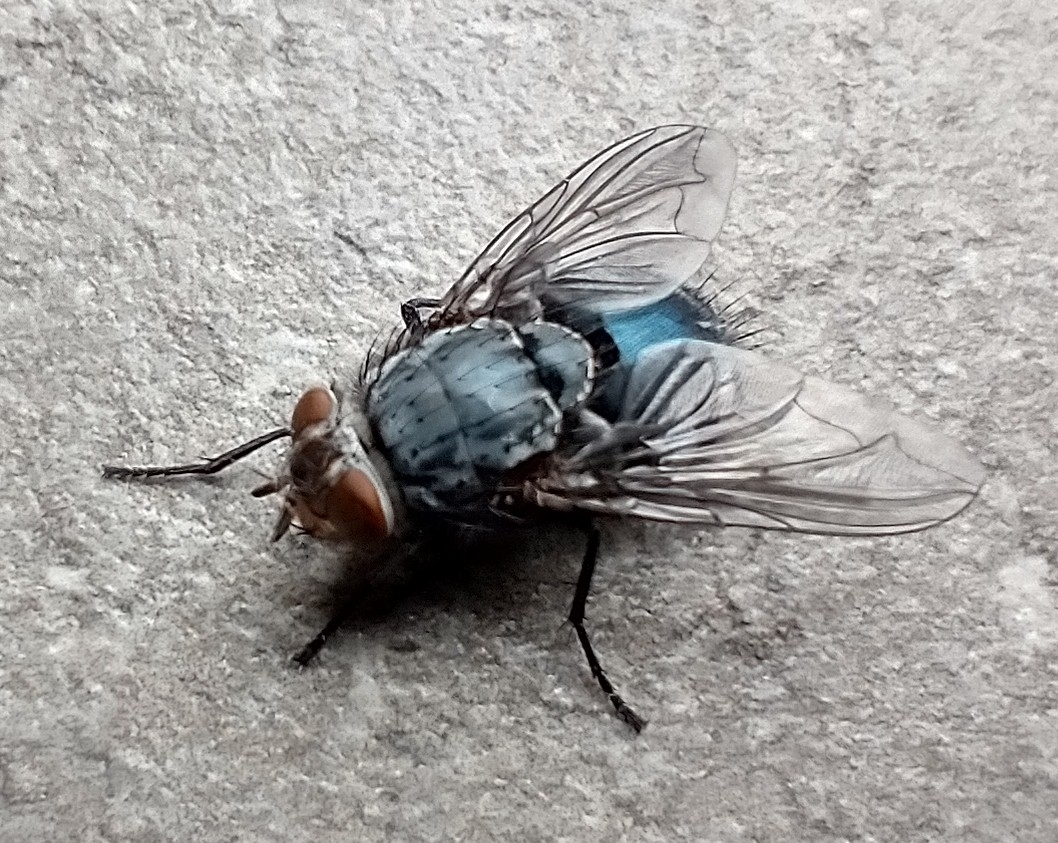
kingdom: Animalia
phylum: Arthropoda
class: Insecta
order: Diptera
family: Calliphoridae
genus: Calliphora
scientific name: Calliphora vicina
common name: Common blow flie
